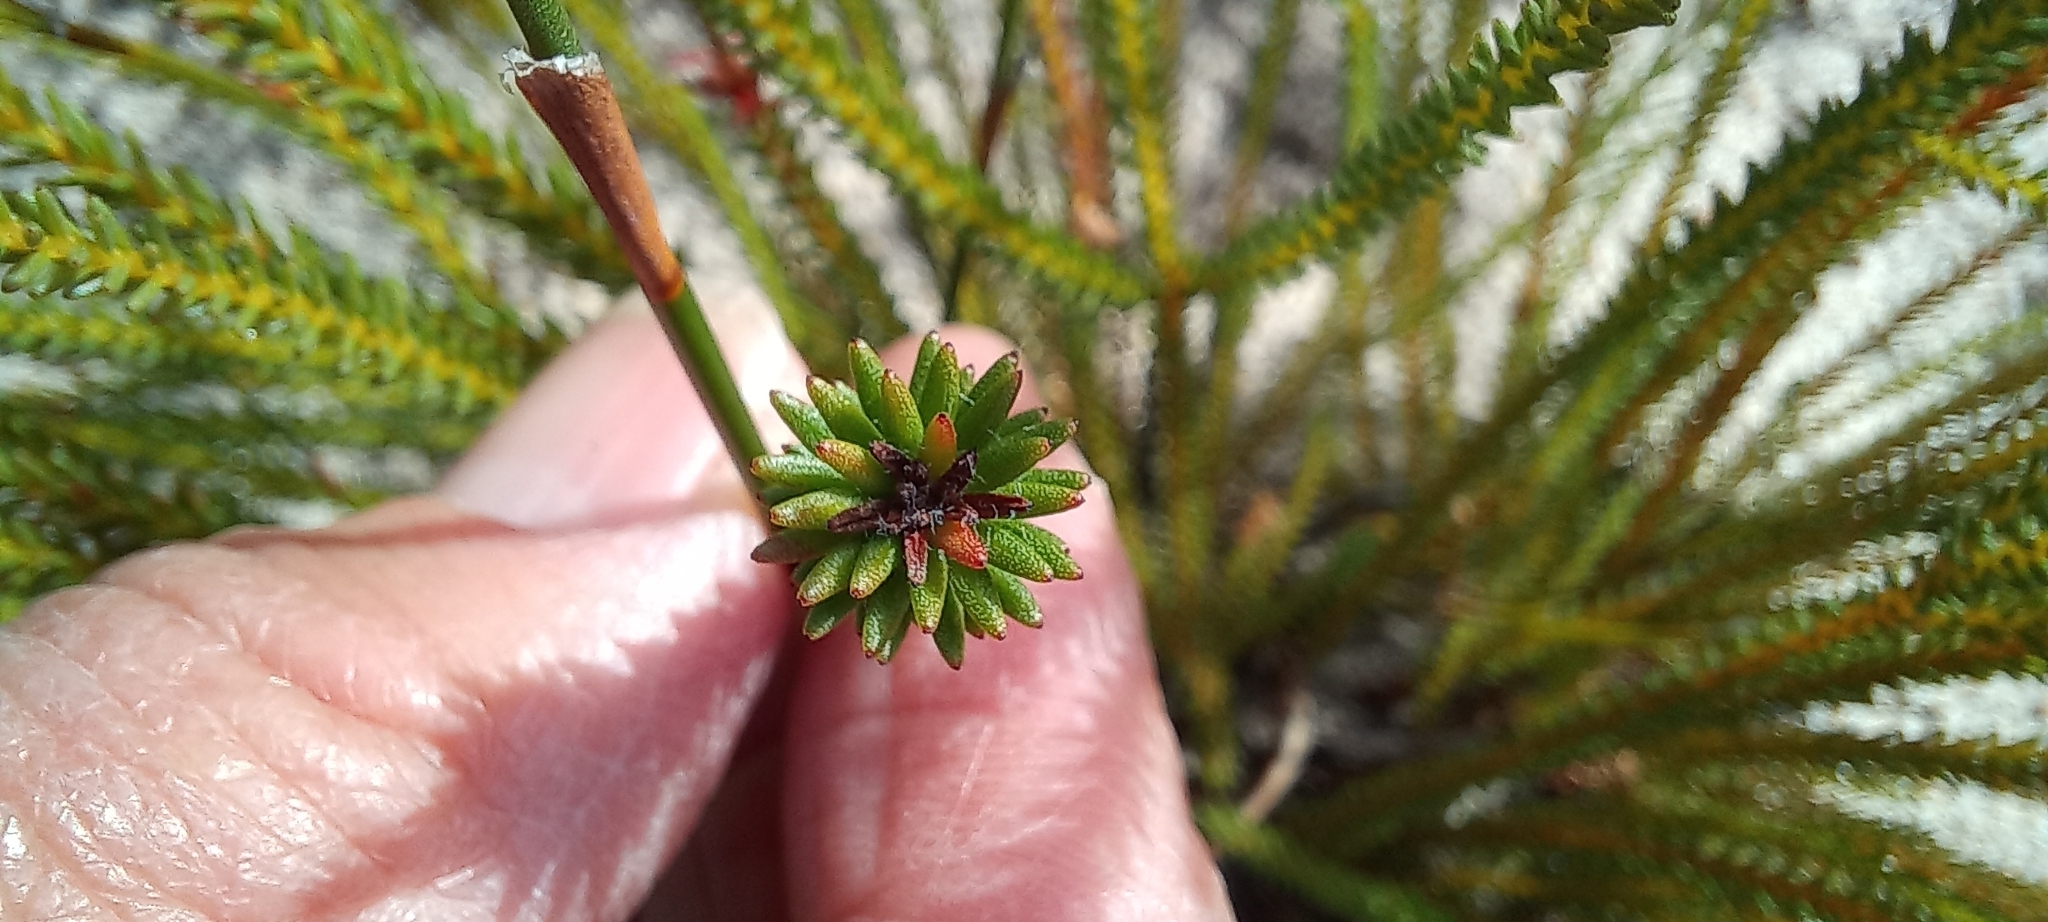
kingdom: Plantae
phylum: Tracheophyta
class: Magnoliopsida
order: Bruniales
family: Bruniaceae
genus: Staavia
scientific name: Staavia radiata
